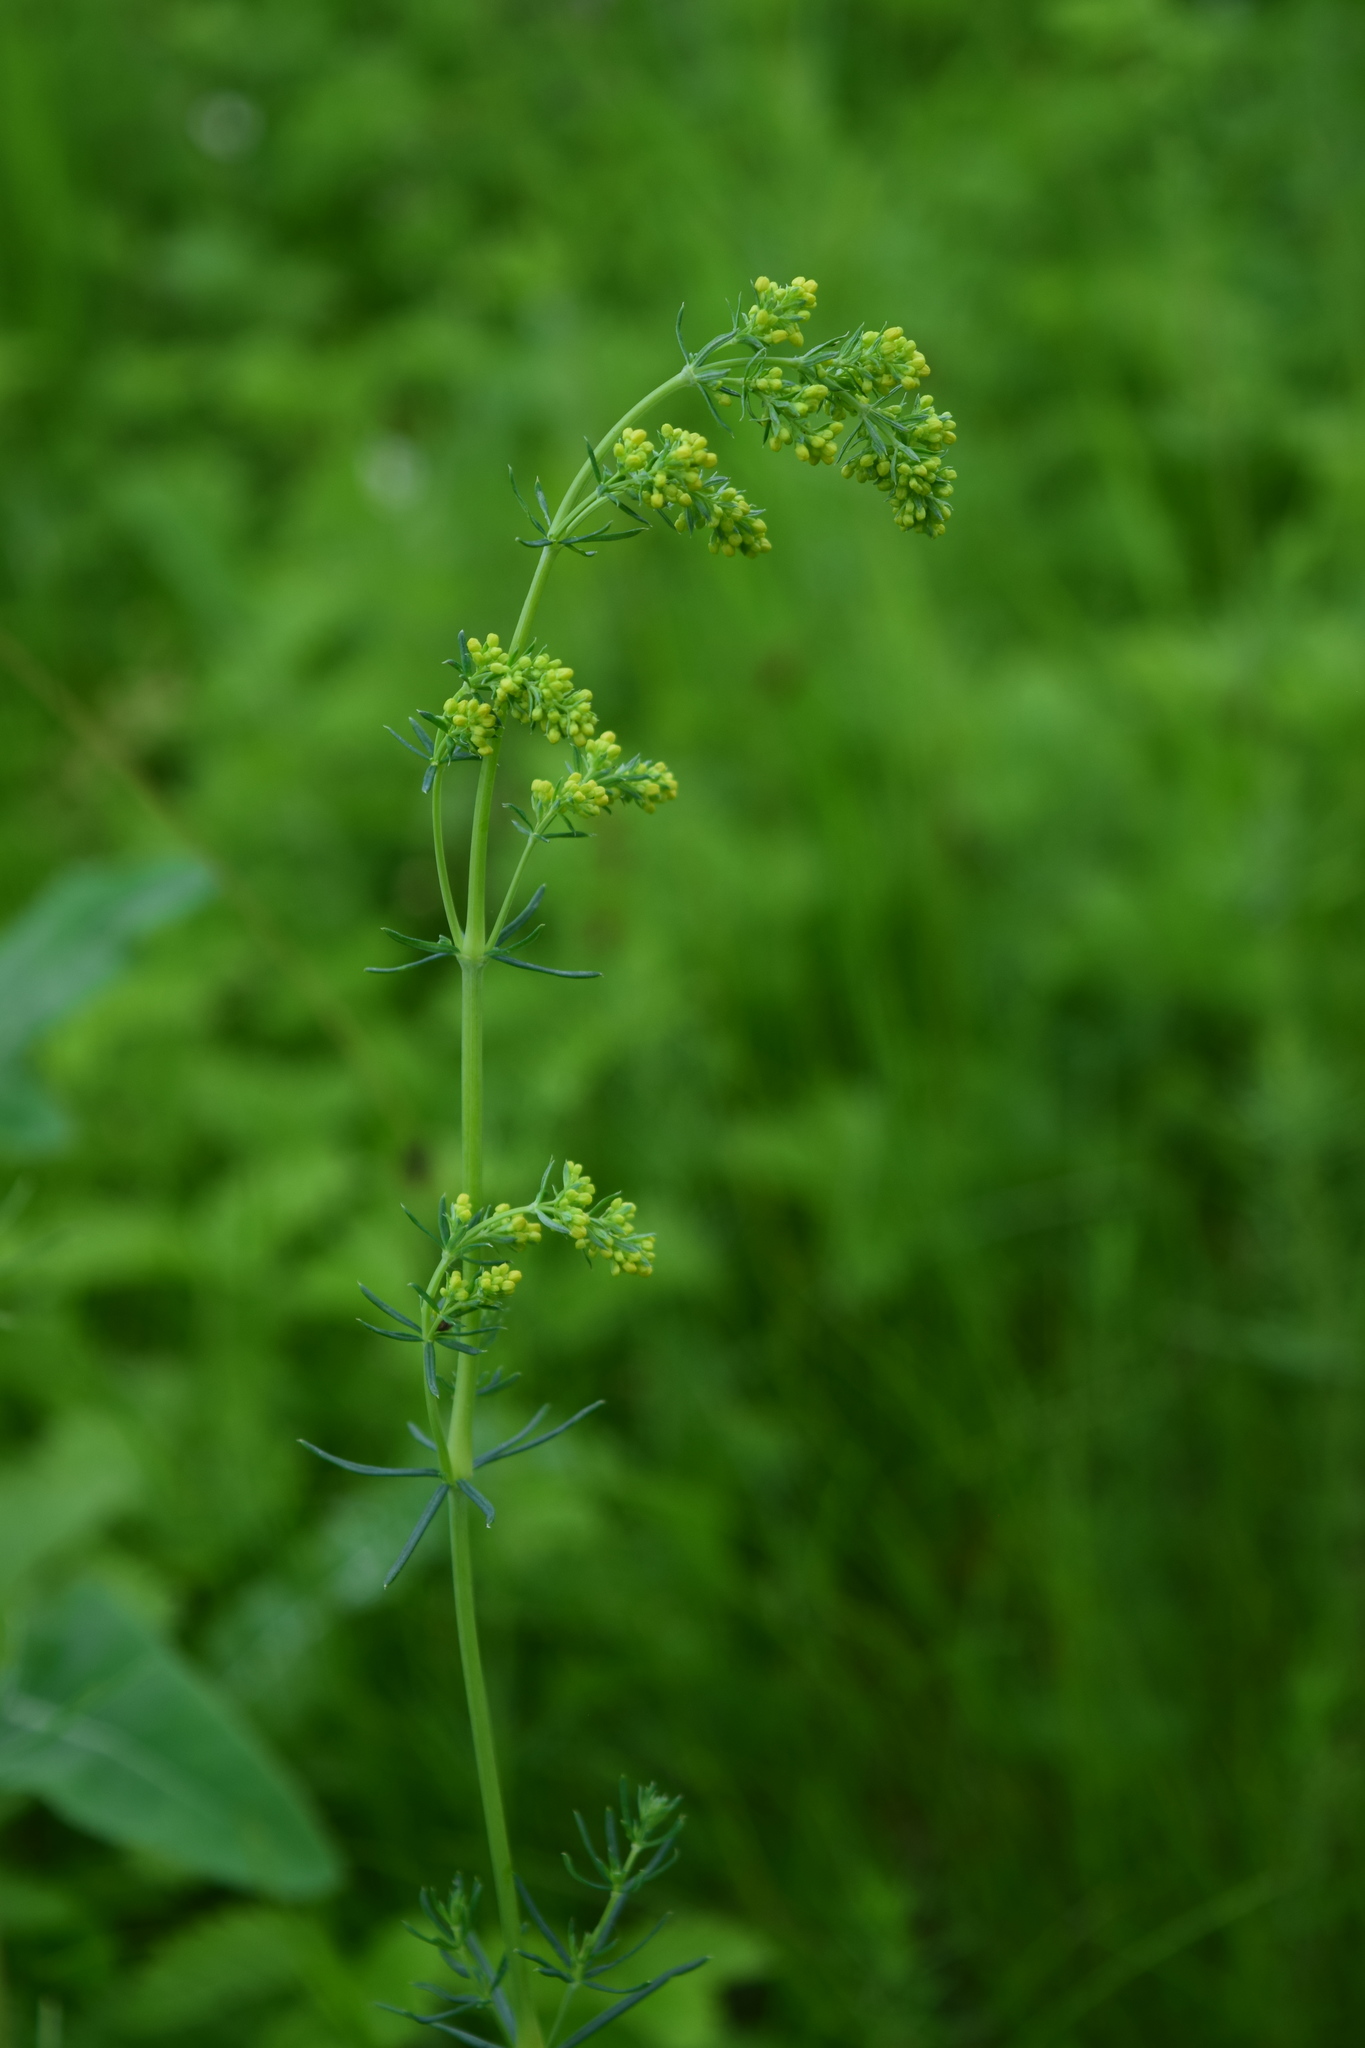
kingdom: Plantae
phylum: Tracheophyta
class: Magnoliopsida
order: Gentianales
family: Rubiaceae
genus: Galium
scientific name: Galium verum
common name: Lady's bedstraw
